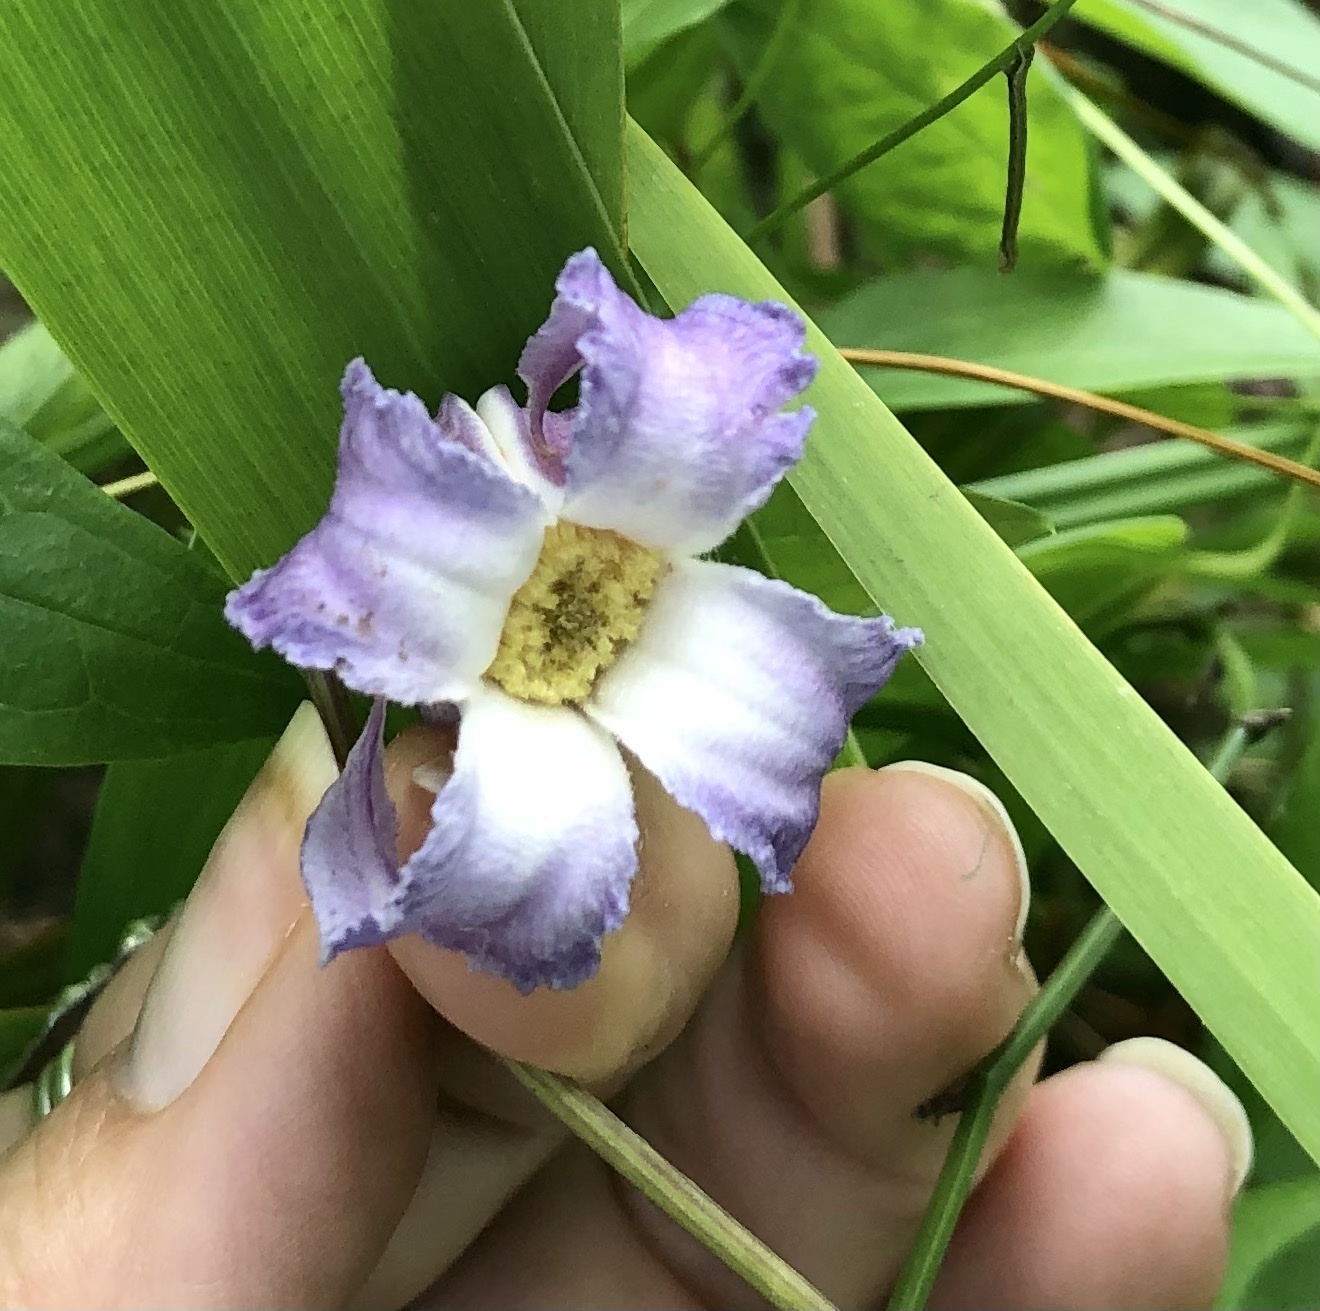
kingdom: Plantae
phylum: Tracheophyta
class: Magnoliopsida
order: Ranunculales
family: Ranunculaceae
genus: Clematis
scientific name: Clematis crispa
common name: Curly clematis
